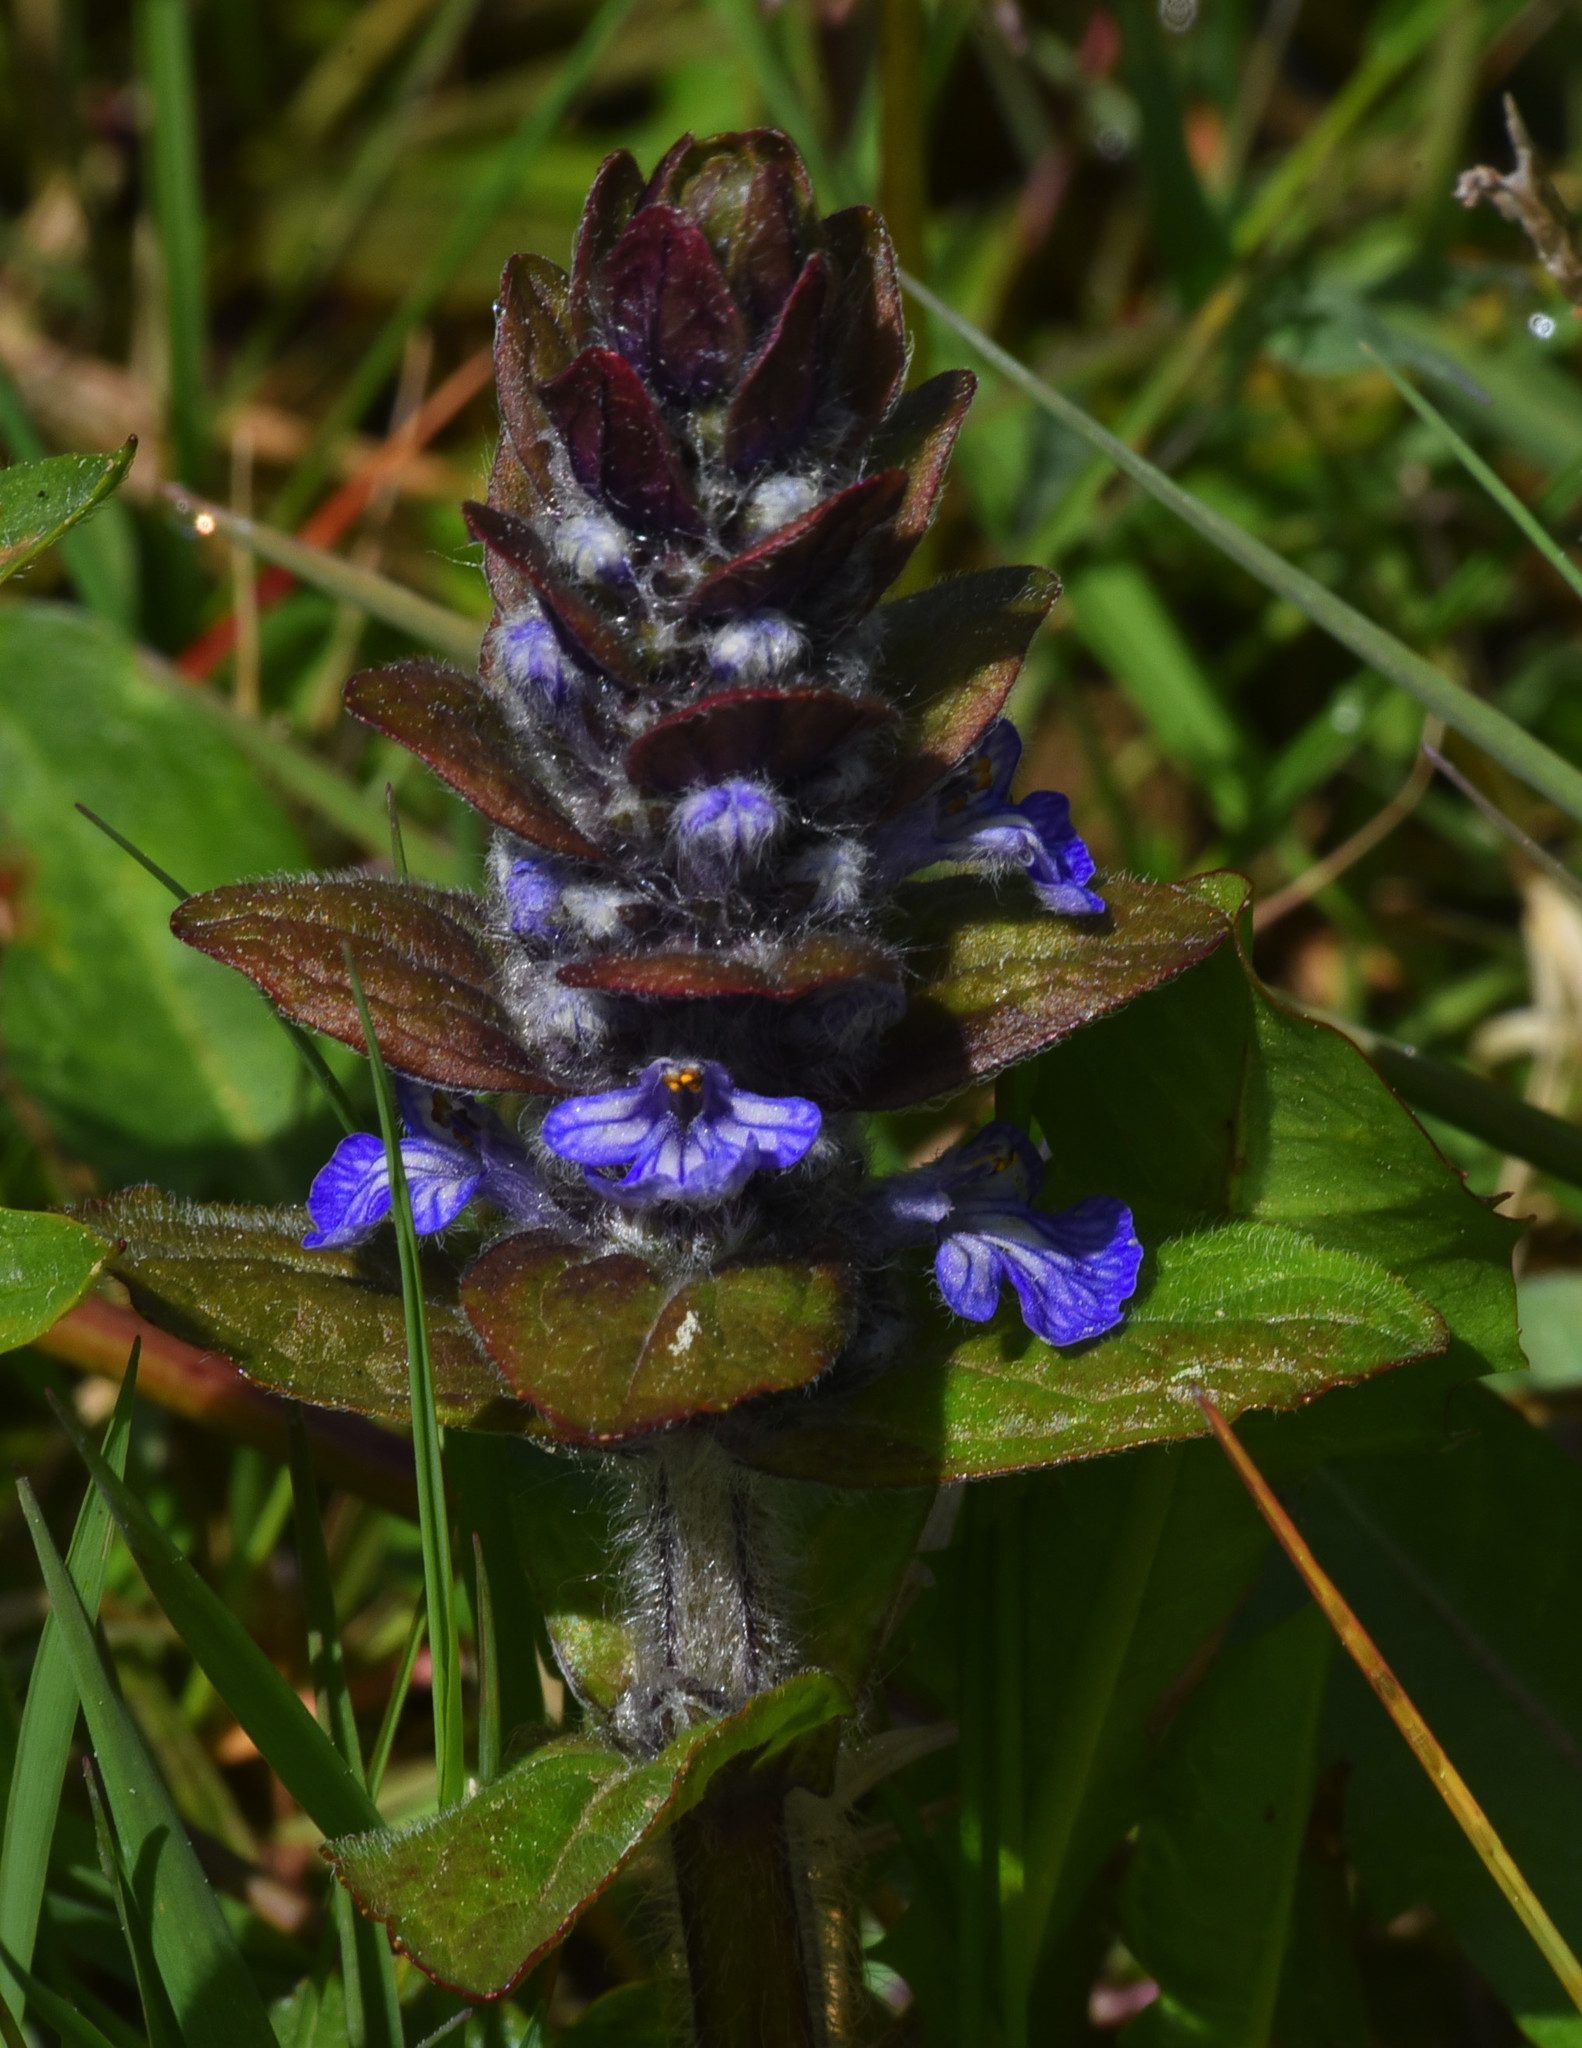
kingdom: Plantae
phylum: Tracheophyta
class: Magnoliopsida
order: Lamiales
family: Lamiaceae
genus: Ajuga
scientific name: Ajuga reptans
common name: Bugle
